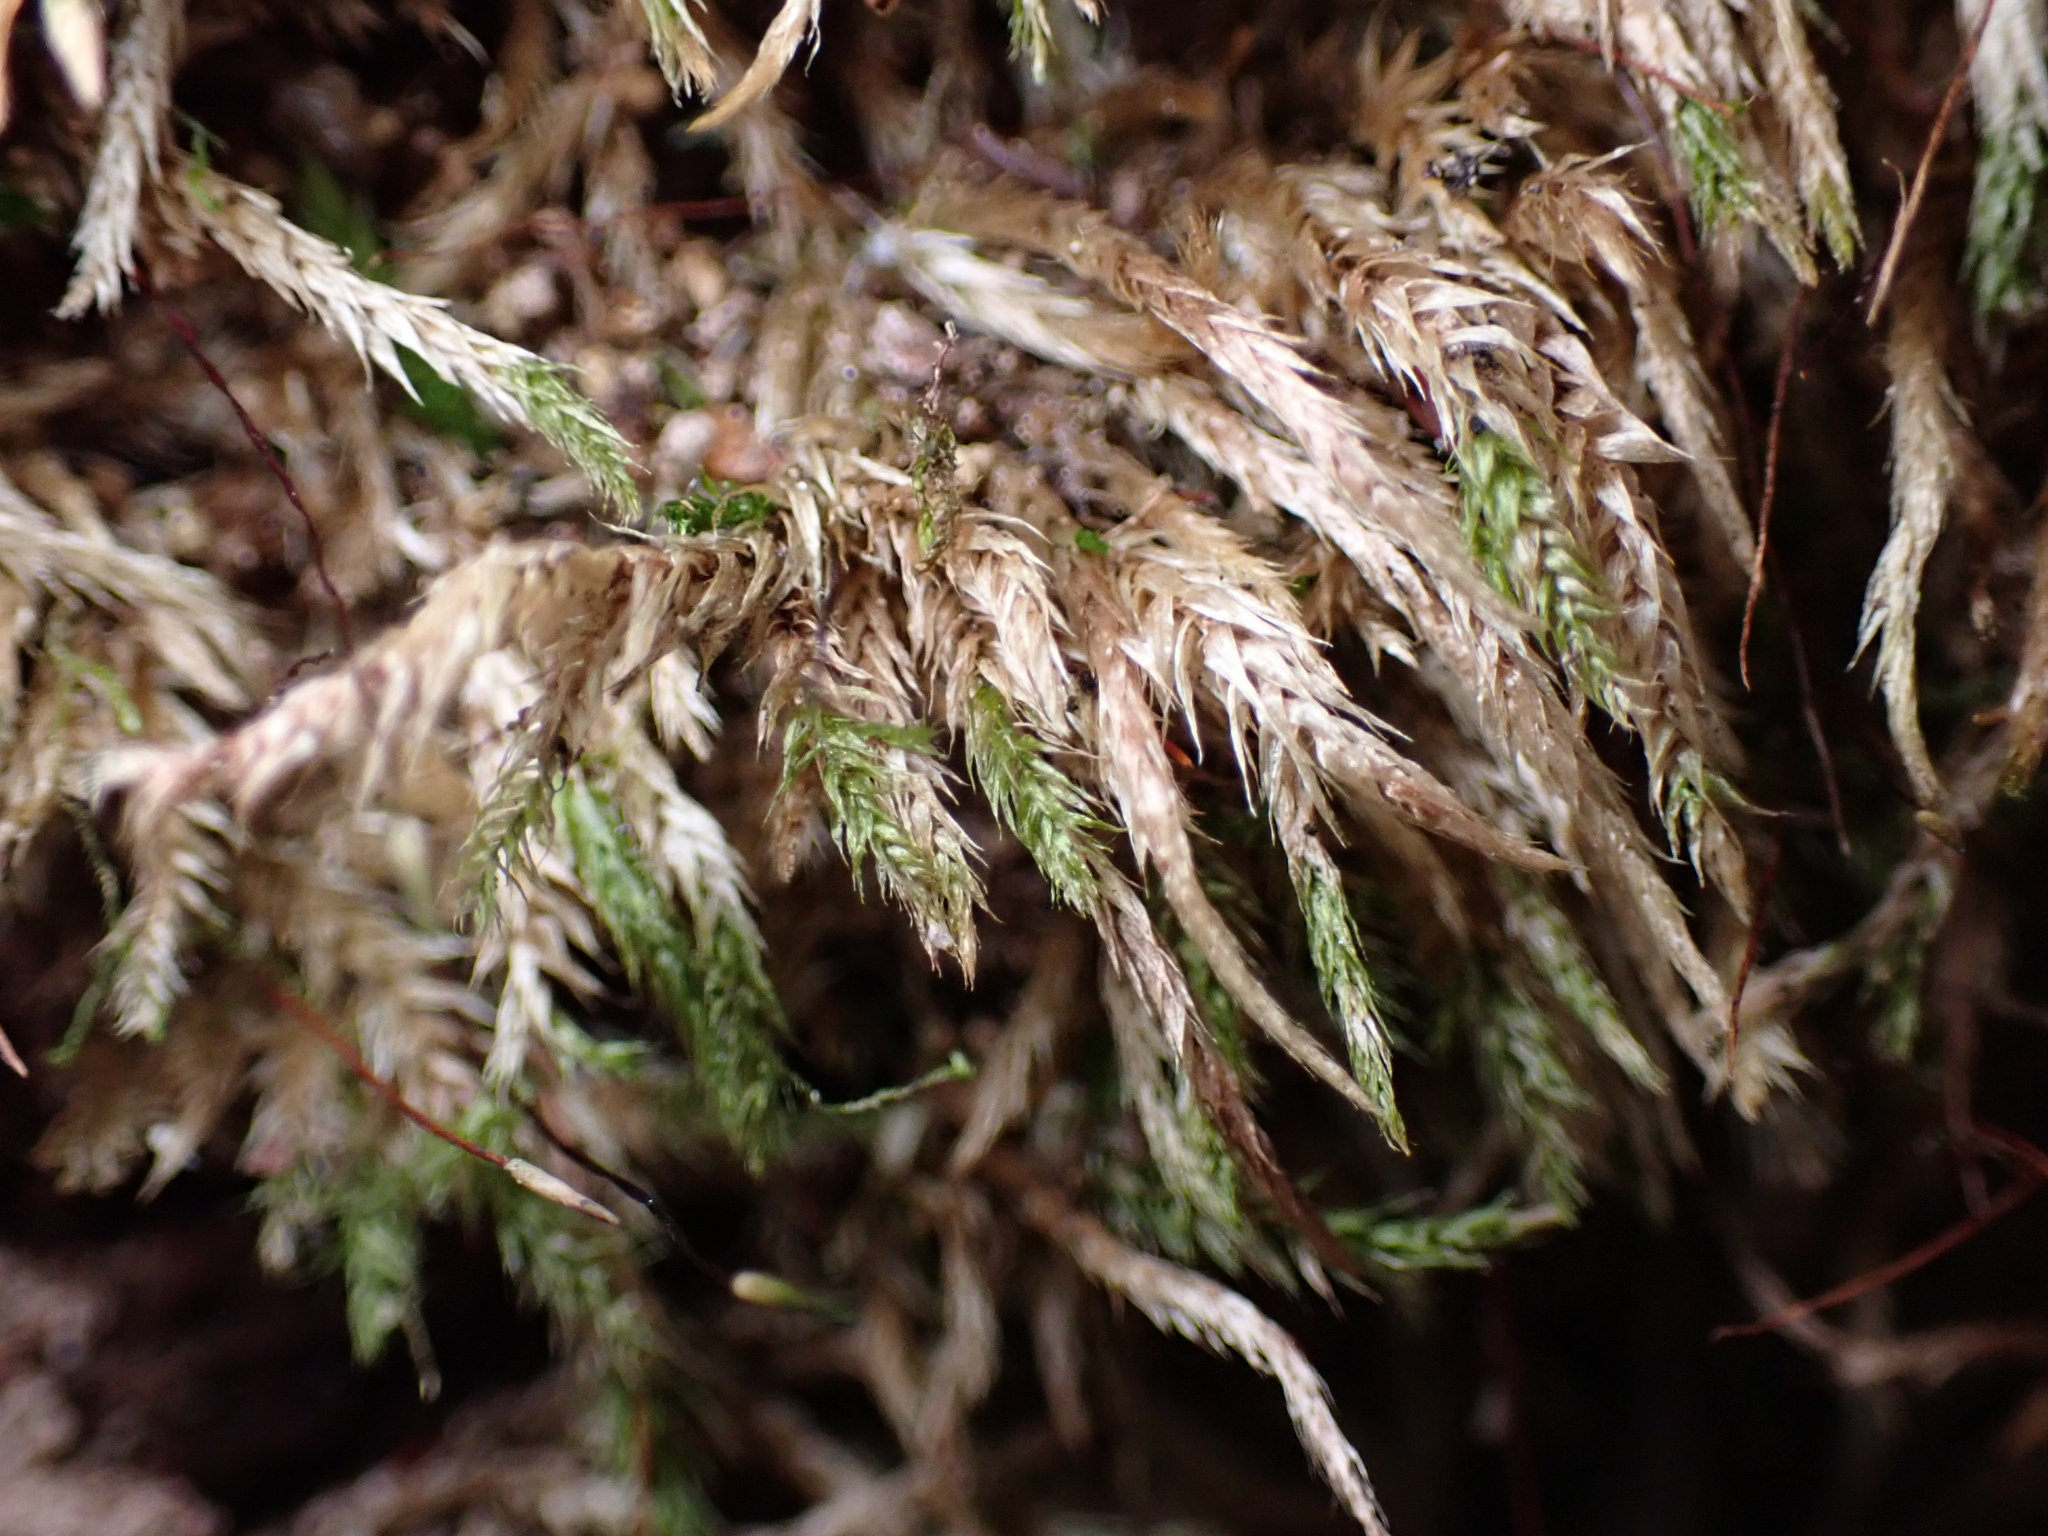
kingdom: Plantae
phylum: Bryophyta
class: Bryopsida
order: Hypnales
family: Callicladiaceae
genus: Callicladium
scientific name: Callicladium haldanianum
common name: Beautiful branch moss
